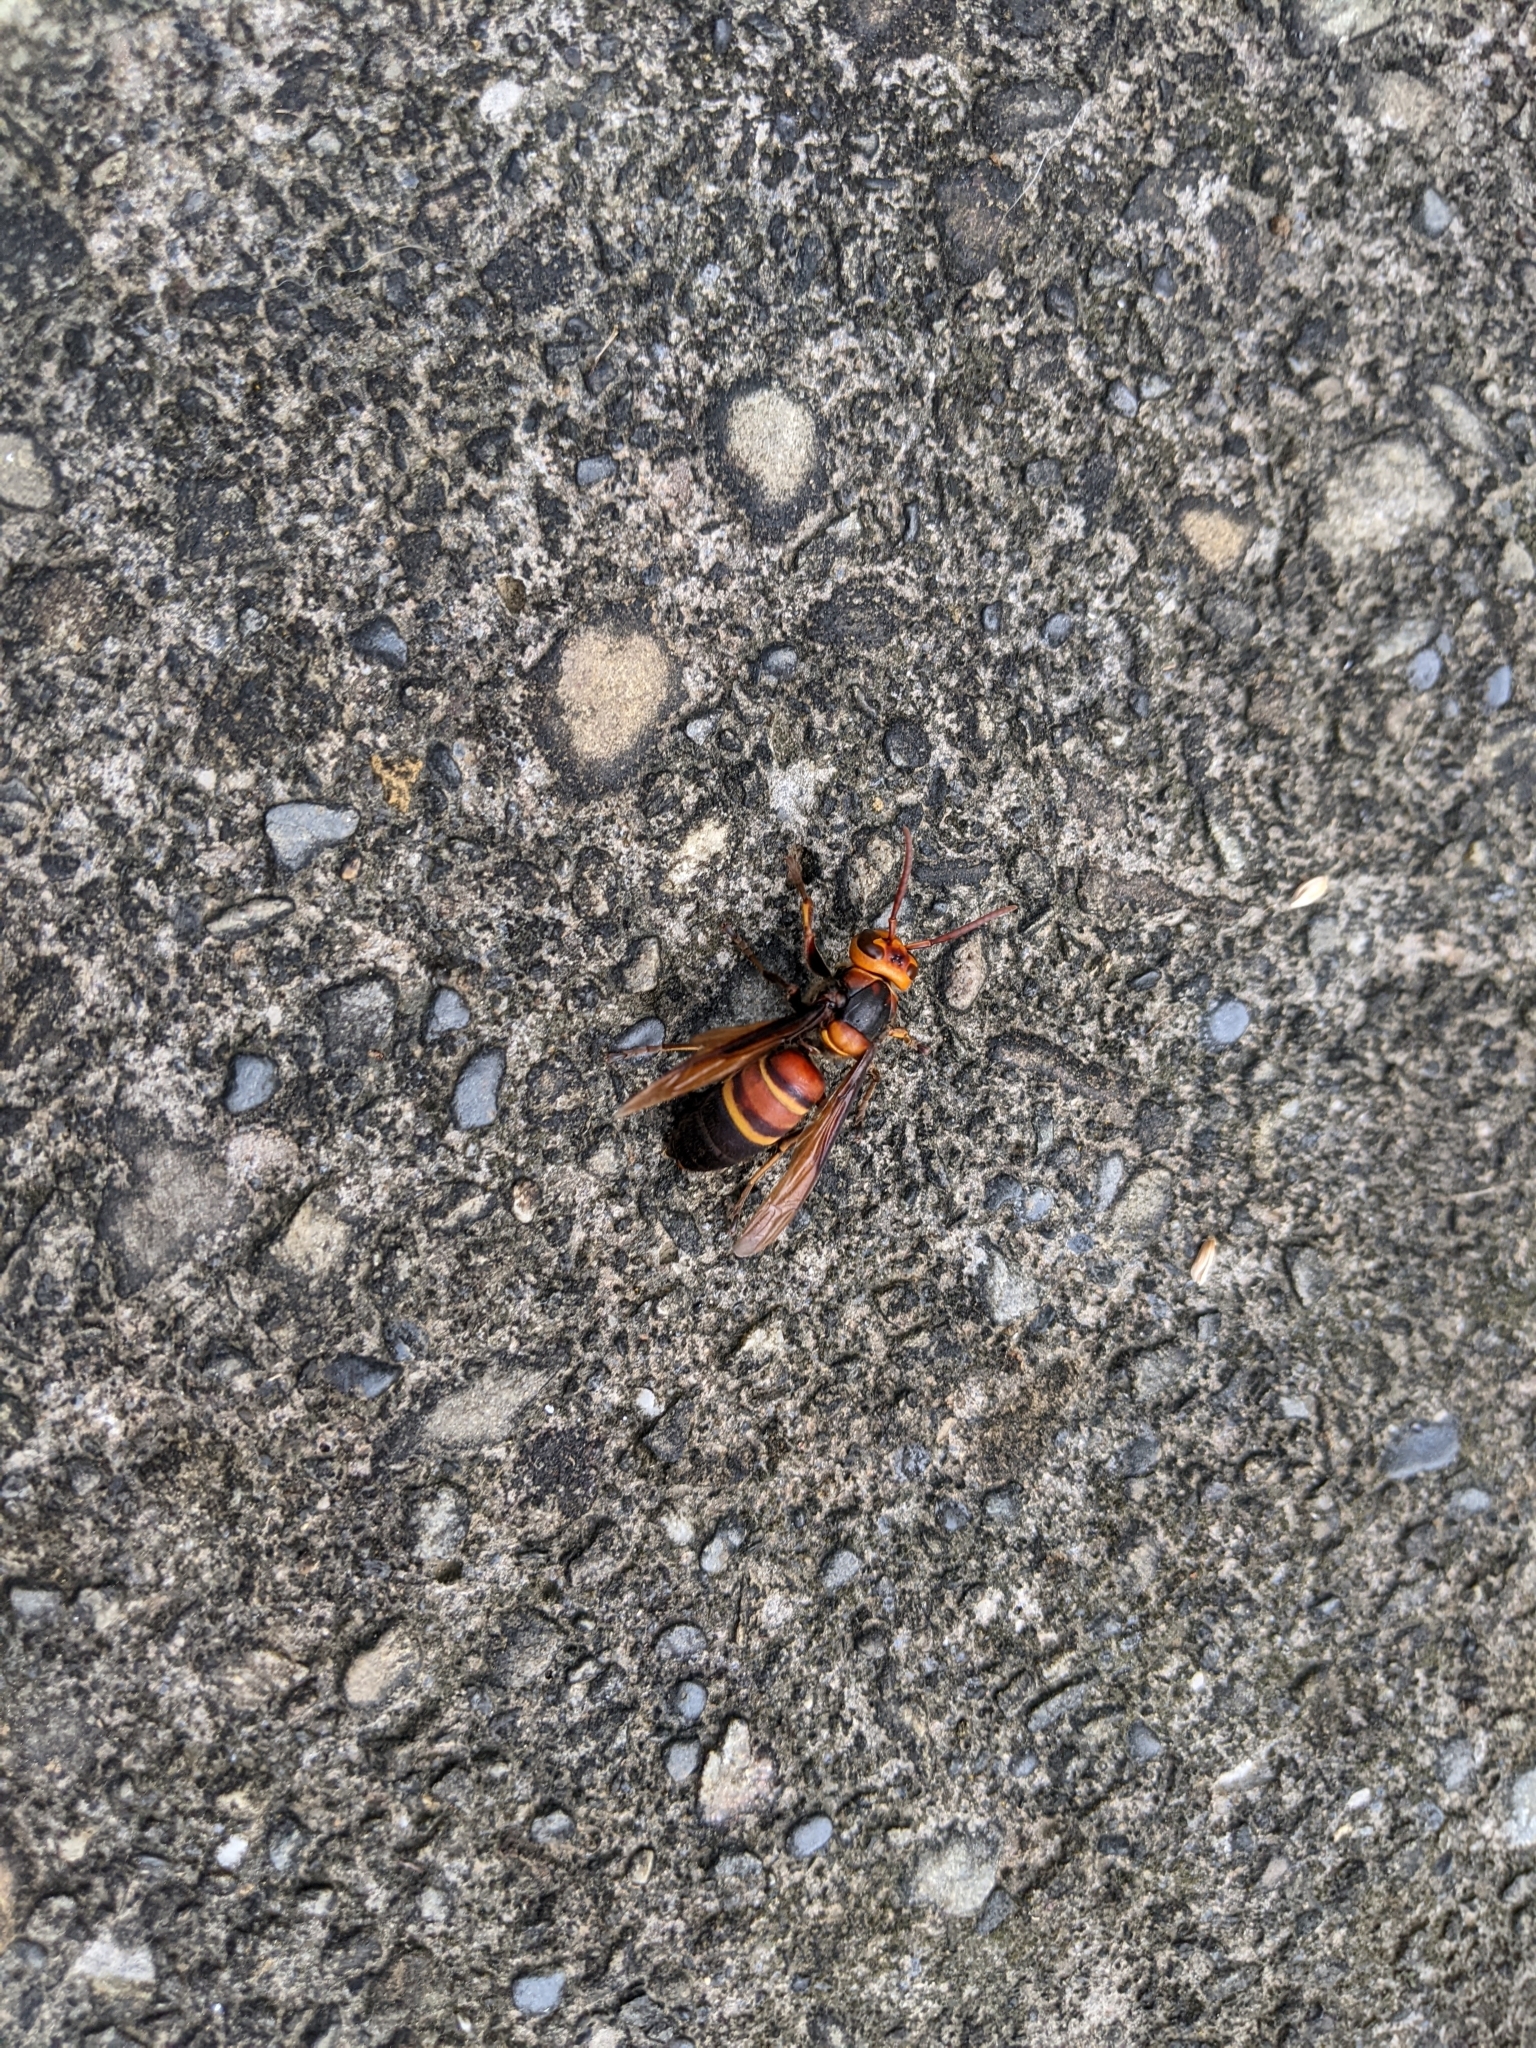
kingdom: Animalia
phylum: Arthropoda
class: Insecta
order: Hymenoptera
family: Vespidae
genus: Vespa
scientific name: Vespa ducalis
